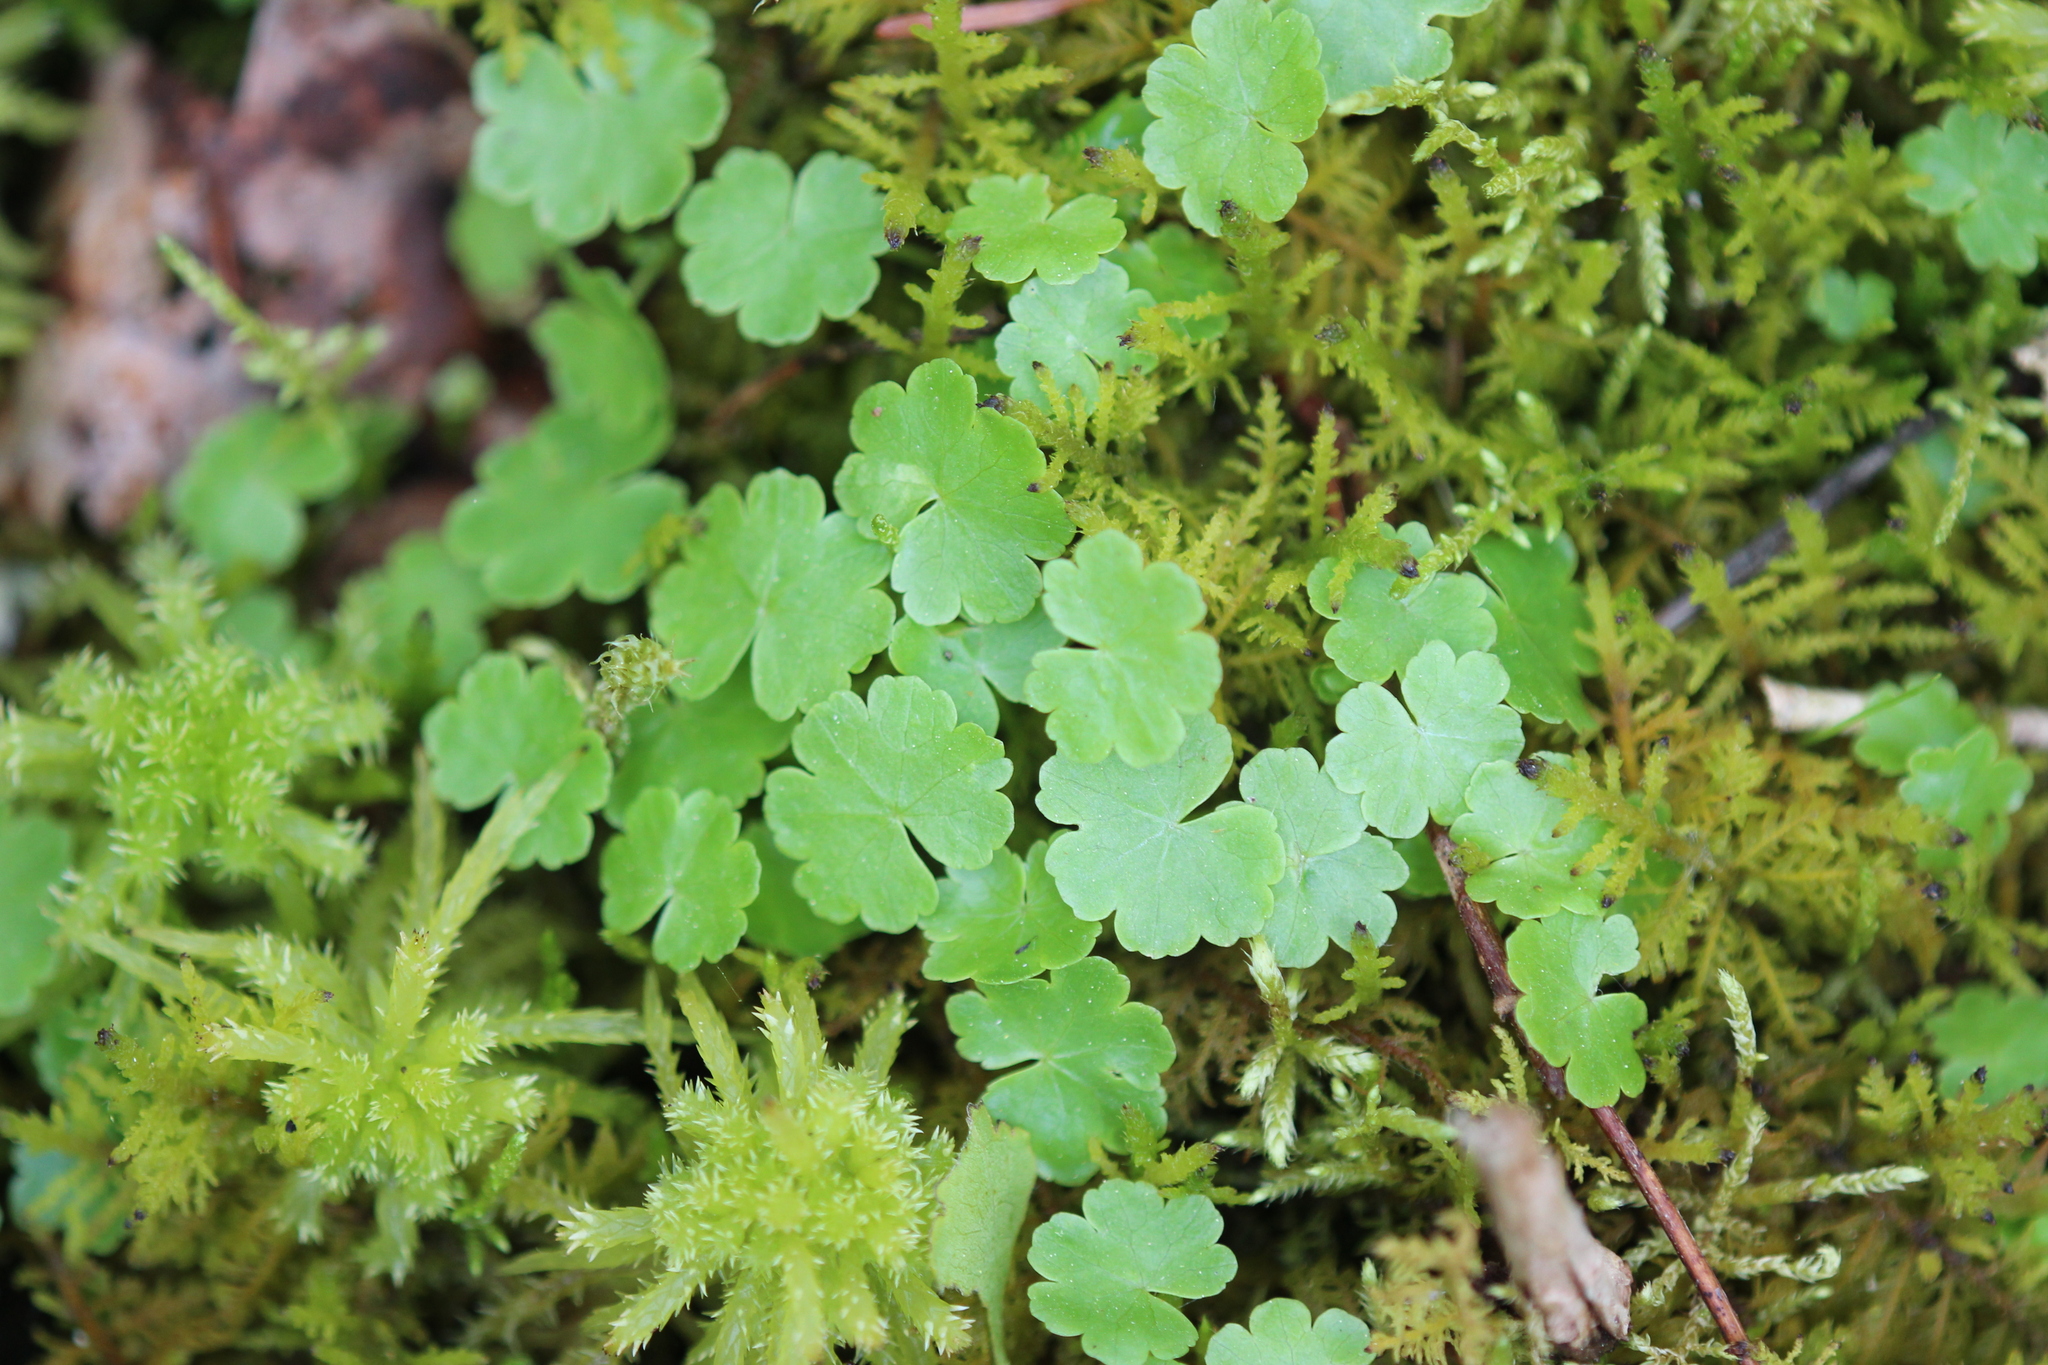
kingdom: Plantae
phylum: Tracheophyta
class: Magnoliopsida
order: Apiales
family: Araliaceae
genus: Hydrocotyle
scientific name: Hydrocotyle americana
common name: American water-pennywort
